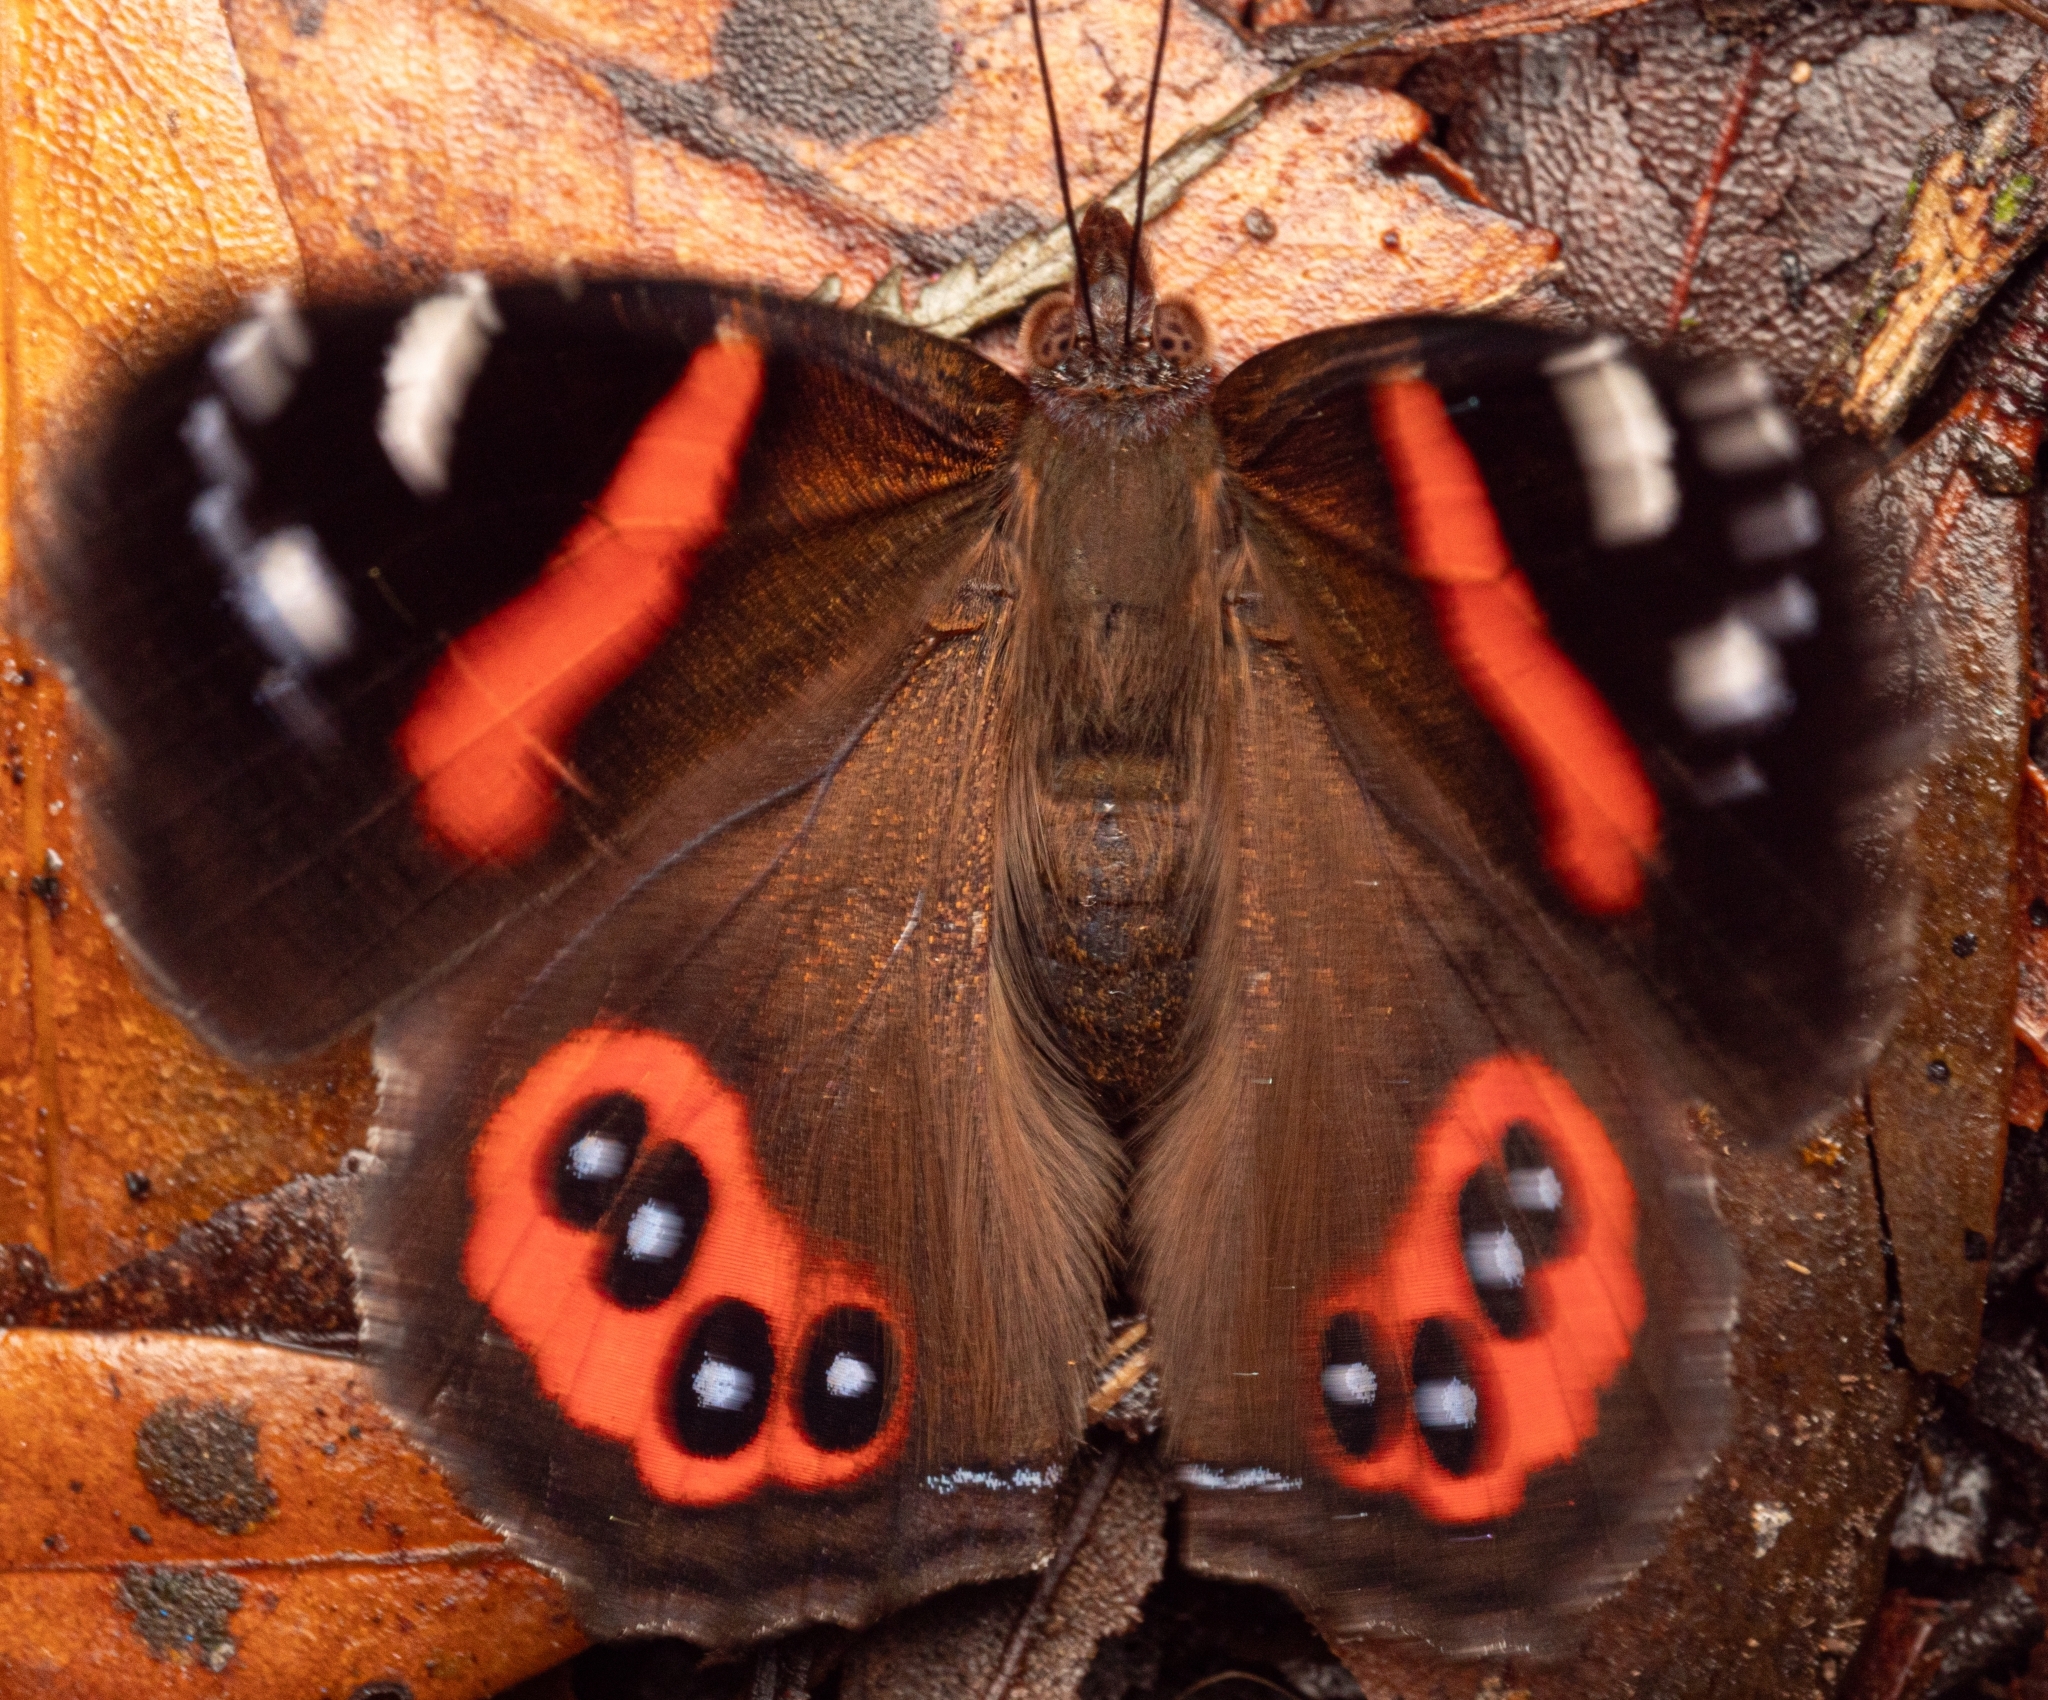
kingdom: Animalia
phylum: Arthropoda
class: Insecta
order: Lepidoptera
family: Nymphalidae
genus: Vanessa
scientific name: Vanessa gonerilla
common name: New zealand red admiral
